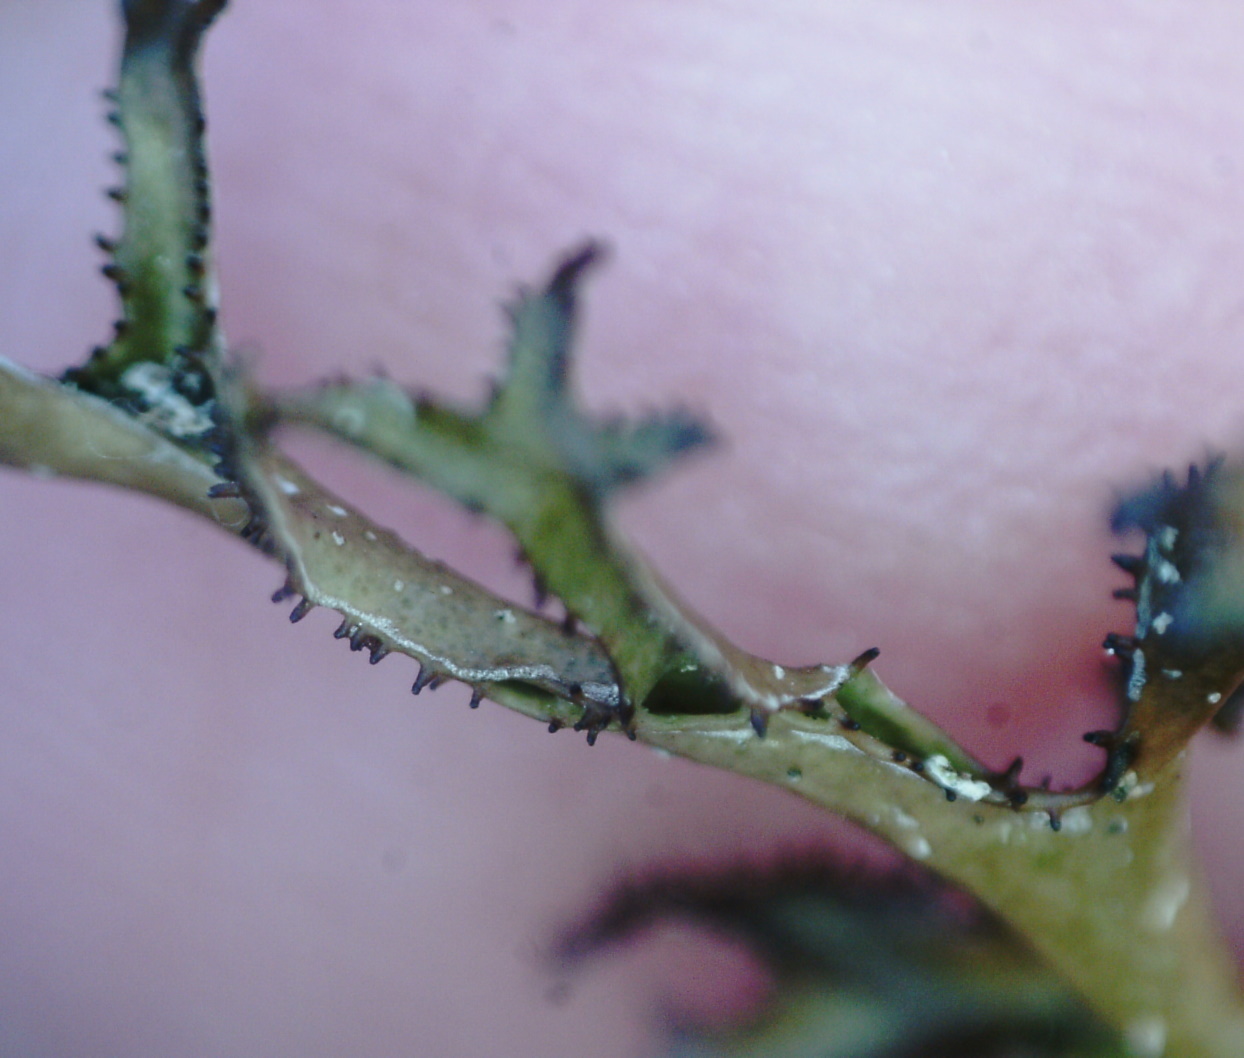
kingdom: Fungi
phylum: Ascomycota
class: Lecanoromycetes
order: Lecanorales
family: Parmeliaceae
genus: Cetraria
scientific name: Cetraria ericetorum
